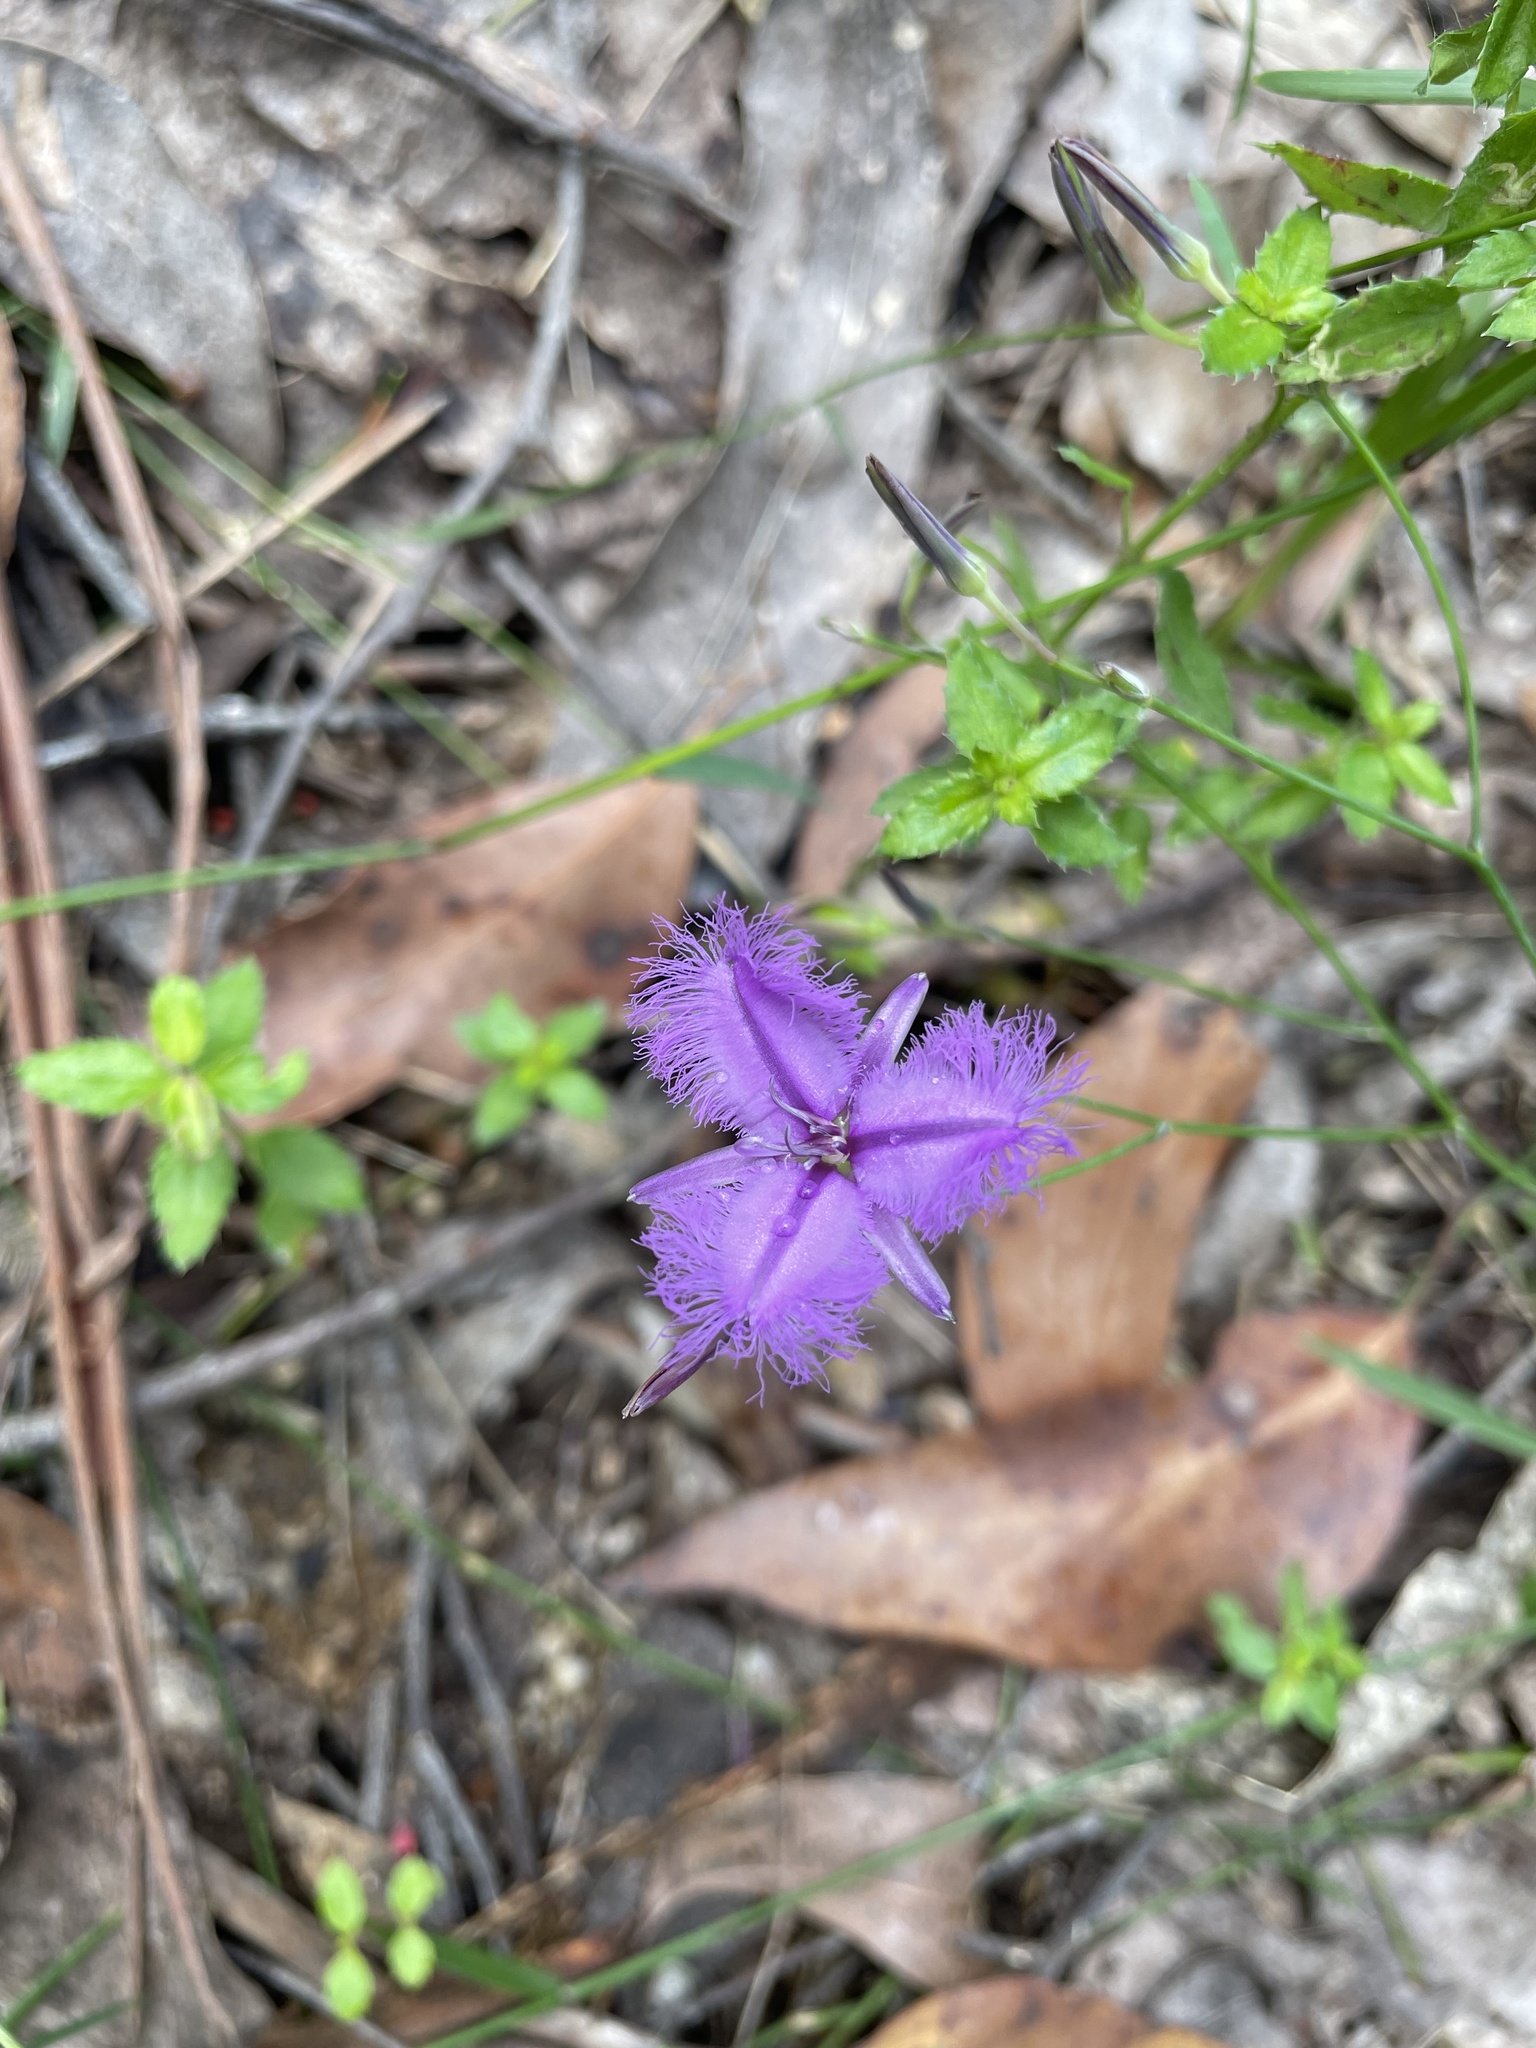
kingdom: Plantae
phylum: Tracheophyta
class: Liliopsida
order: Asparagales
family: Asparagaceae
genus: Thysanotus
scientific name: Thysanotus tuberosus
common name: Common fringed-lily
